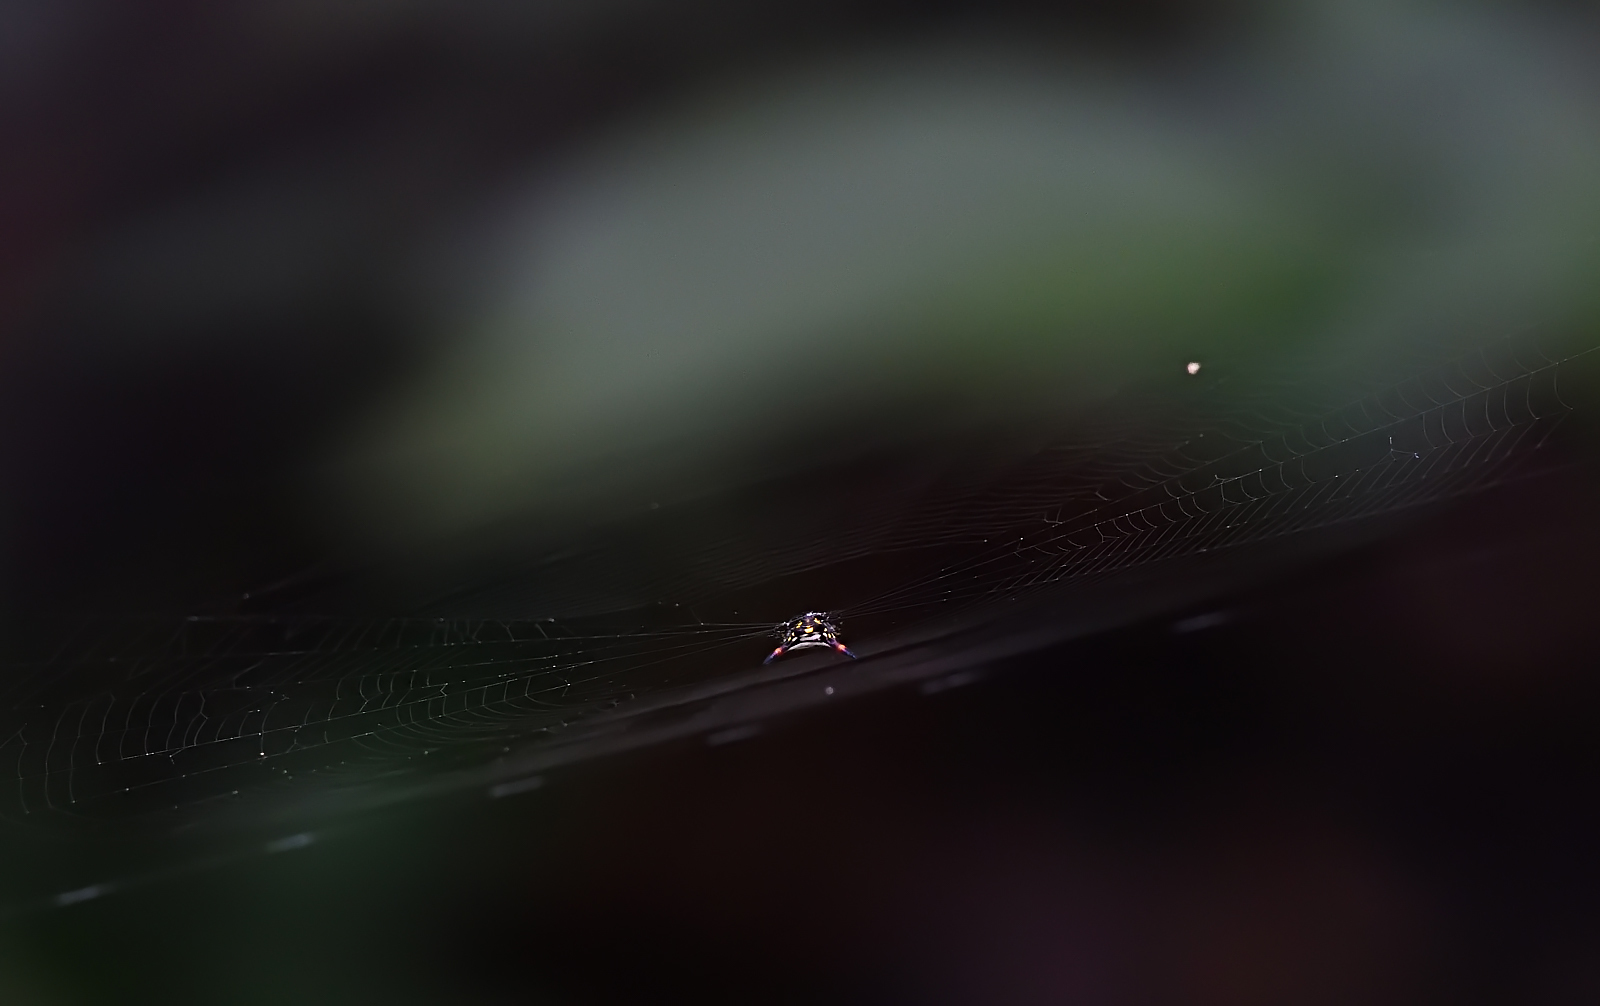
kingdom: Animalia
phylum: Arthropoda
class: Arachnida
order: Araneae
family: Araneidae
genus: Gasteracantha
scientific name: Gasteracantha geminata
